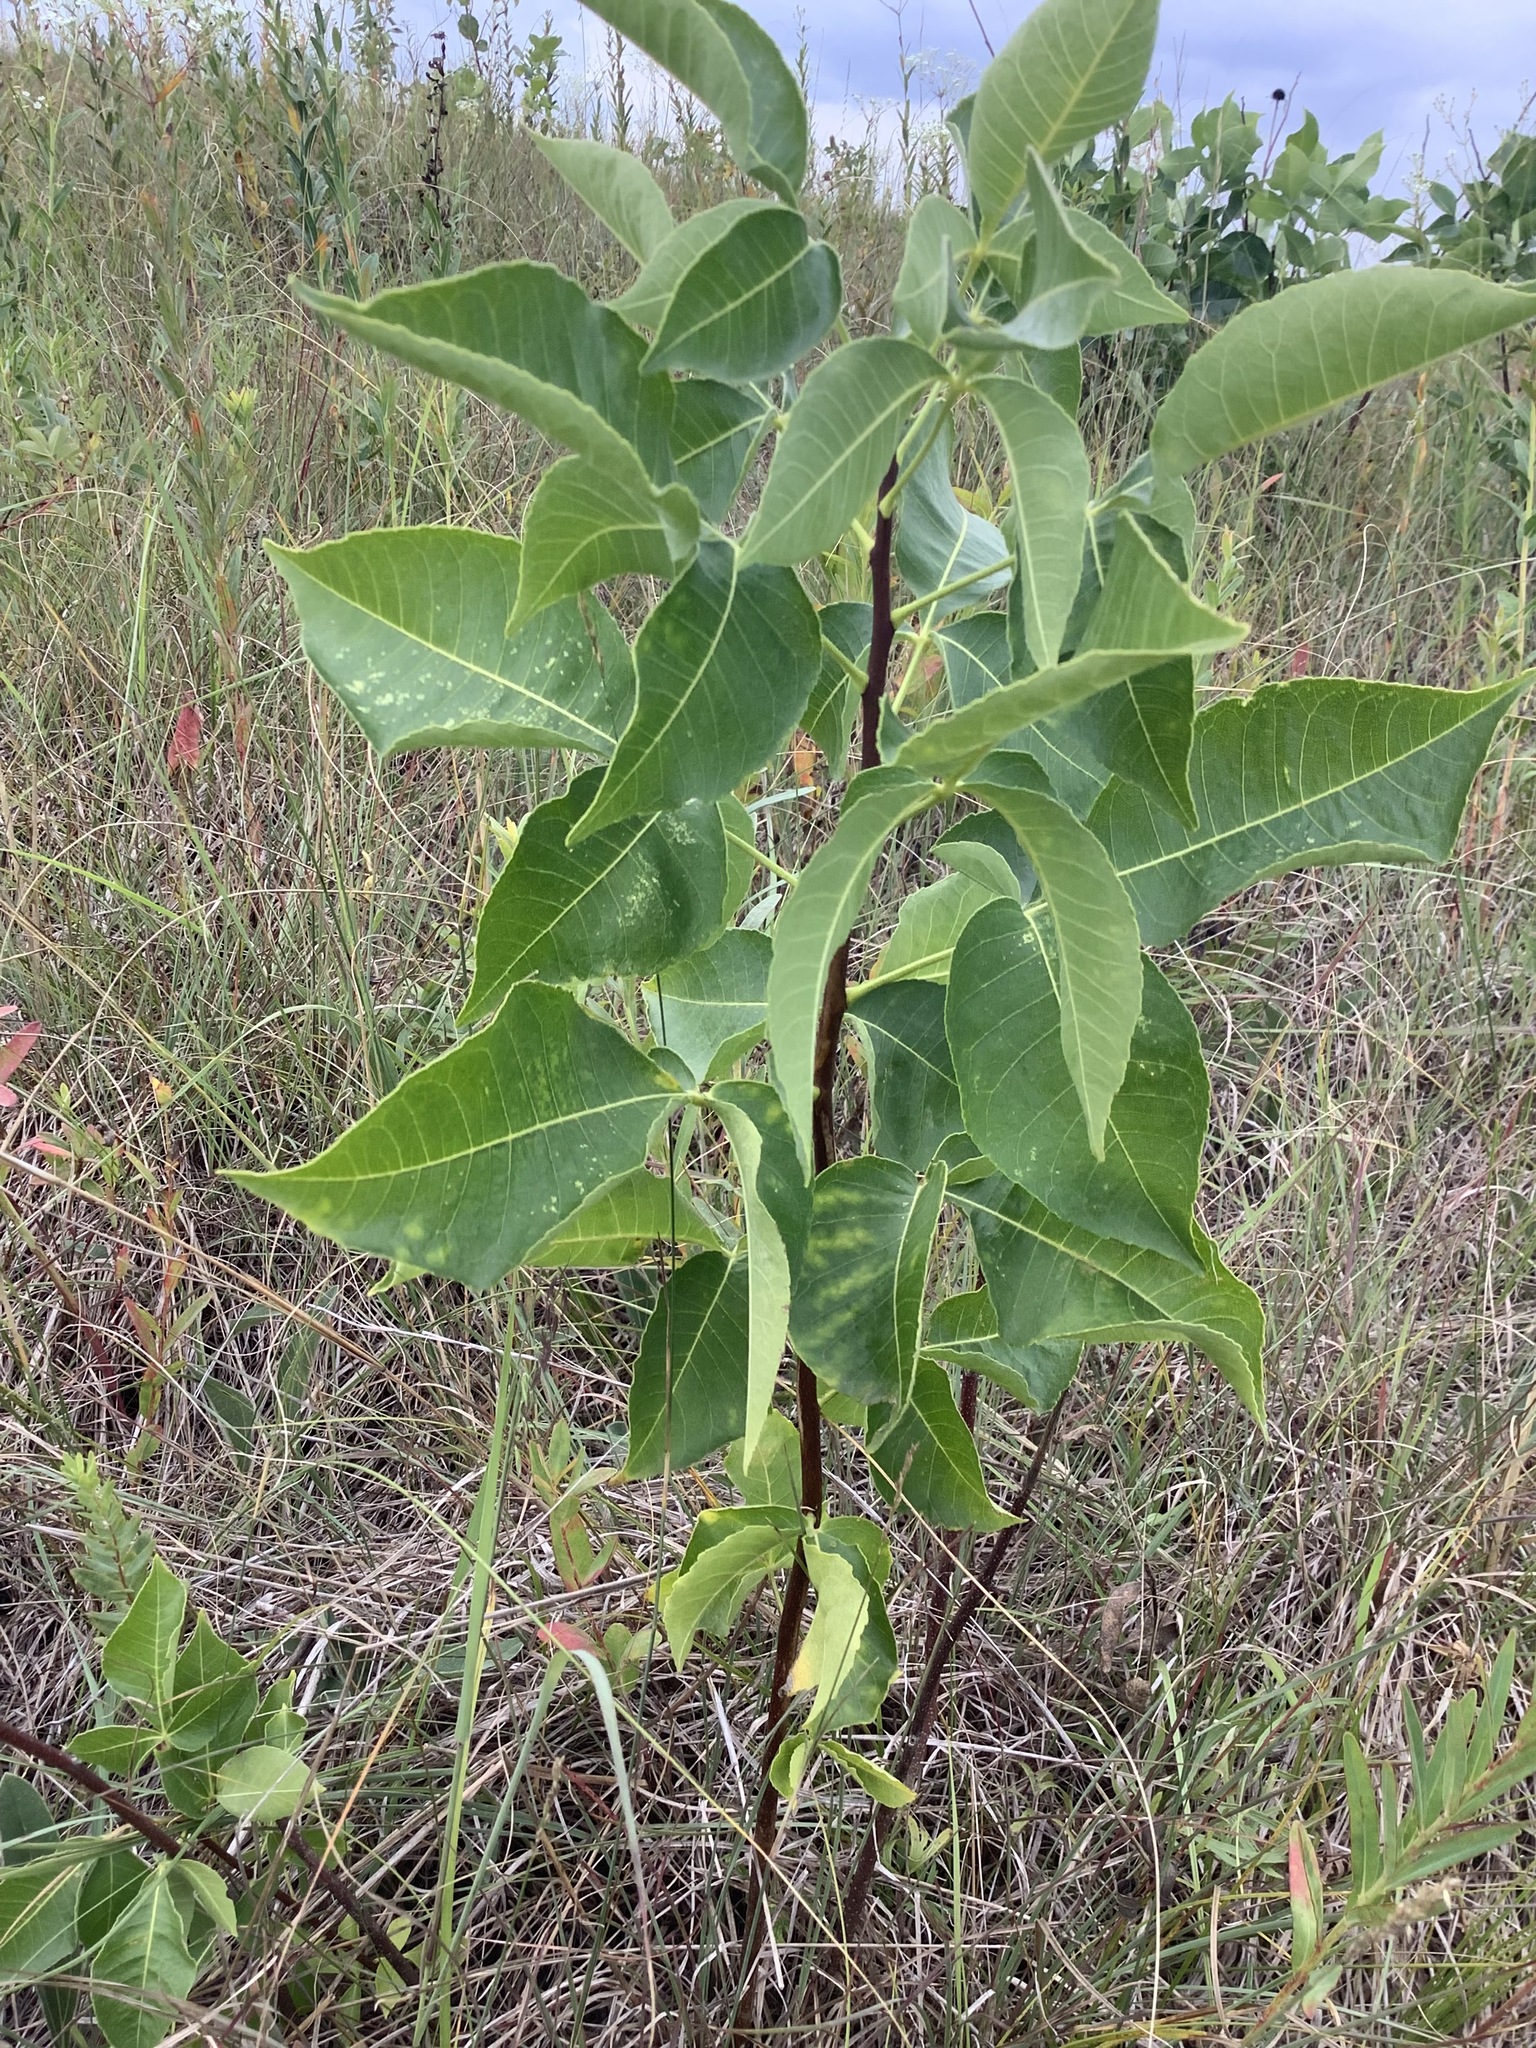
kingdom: Plantae
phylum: Tracheophyta
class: Magnoliopsida
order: Sapindales
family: Rutaceae
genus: Ptelea
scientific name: Ptelea trifoliata
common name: Common hop-tree
